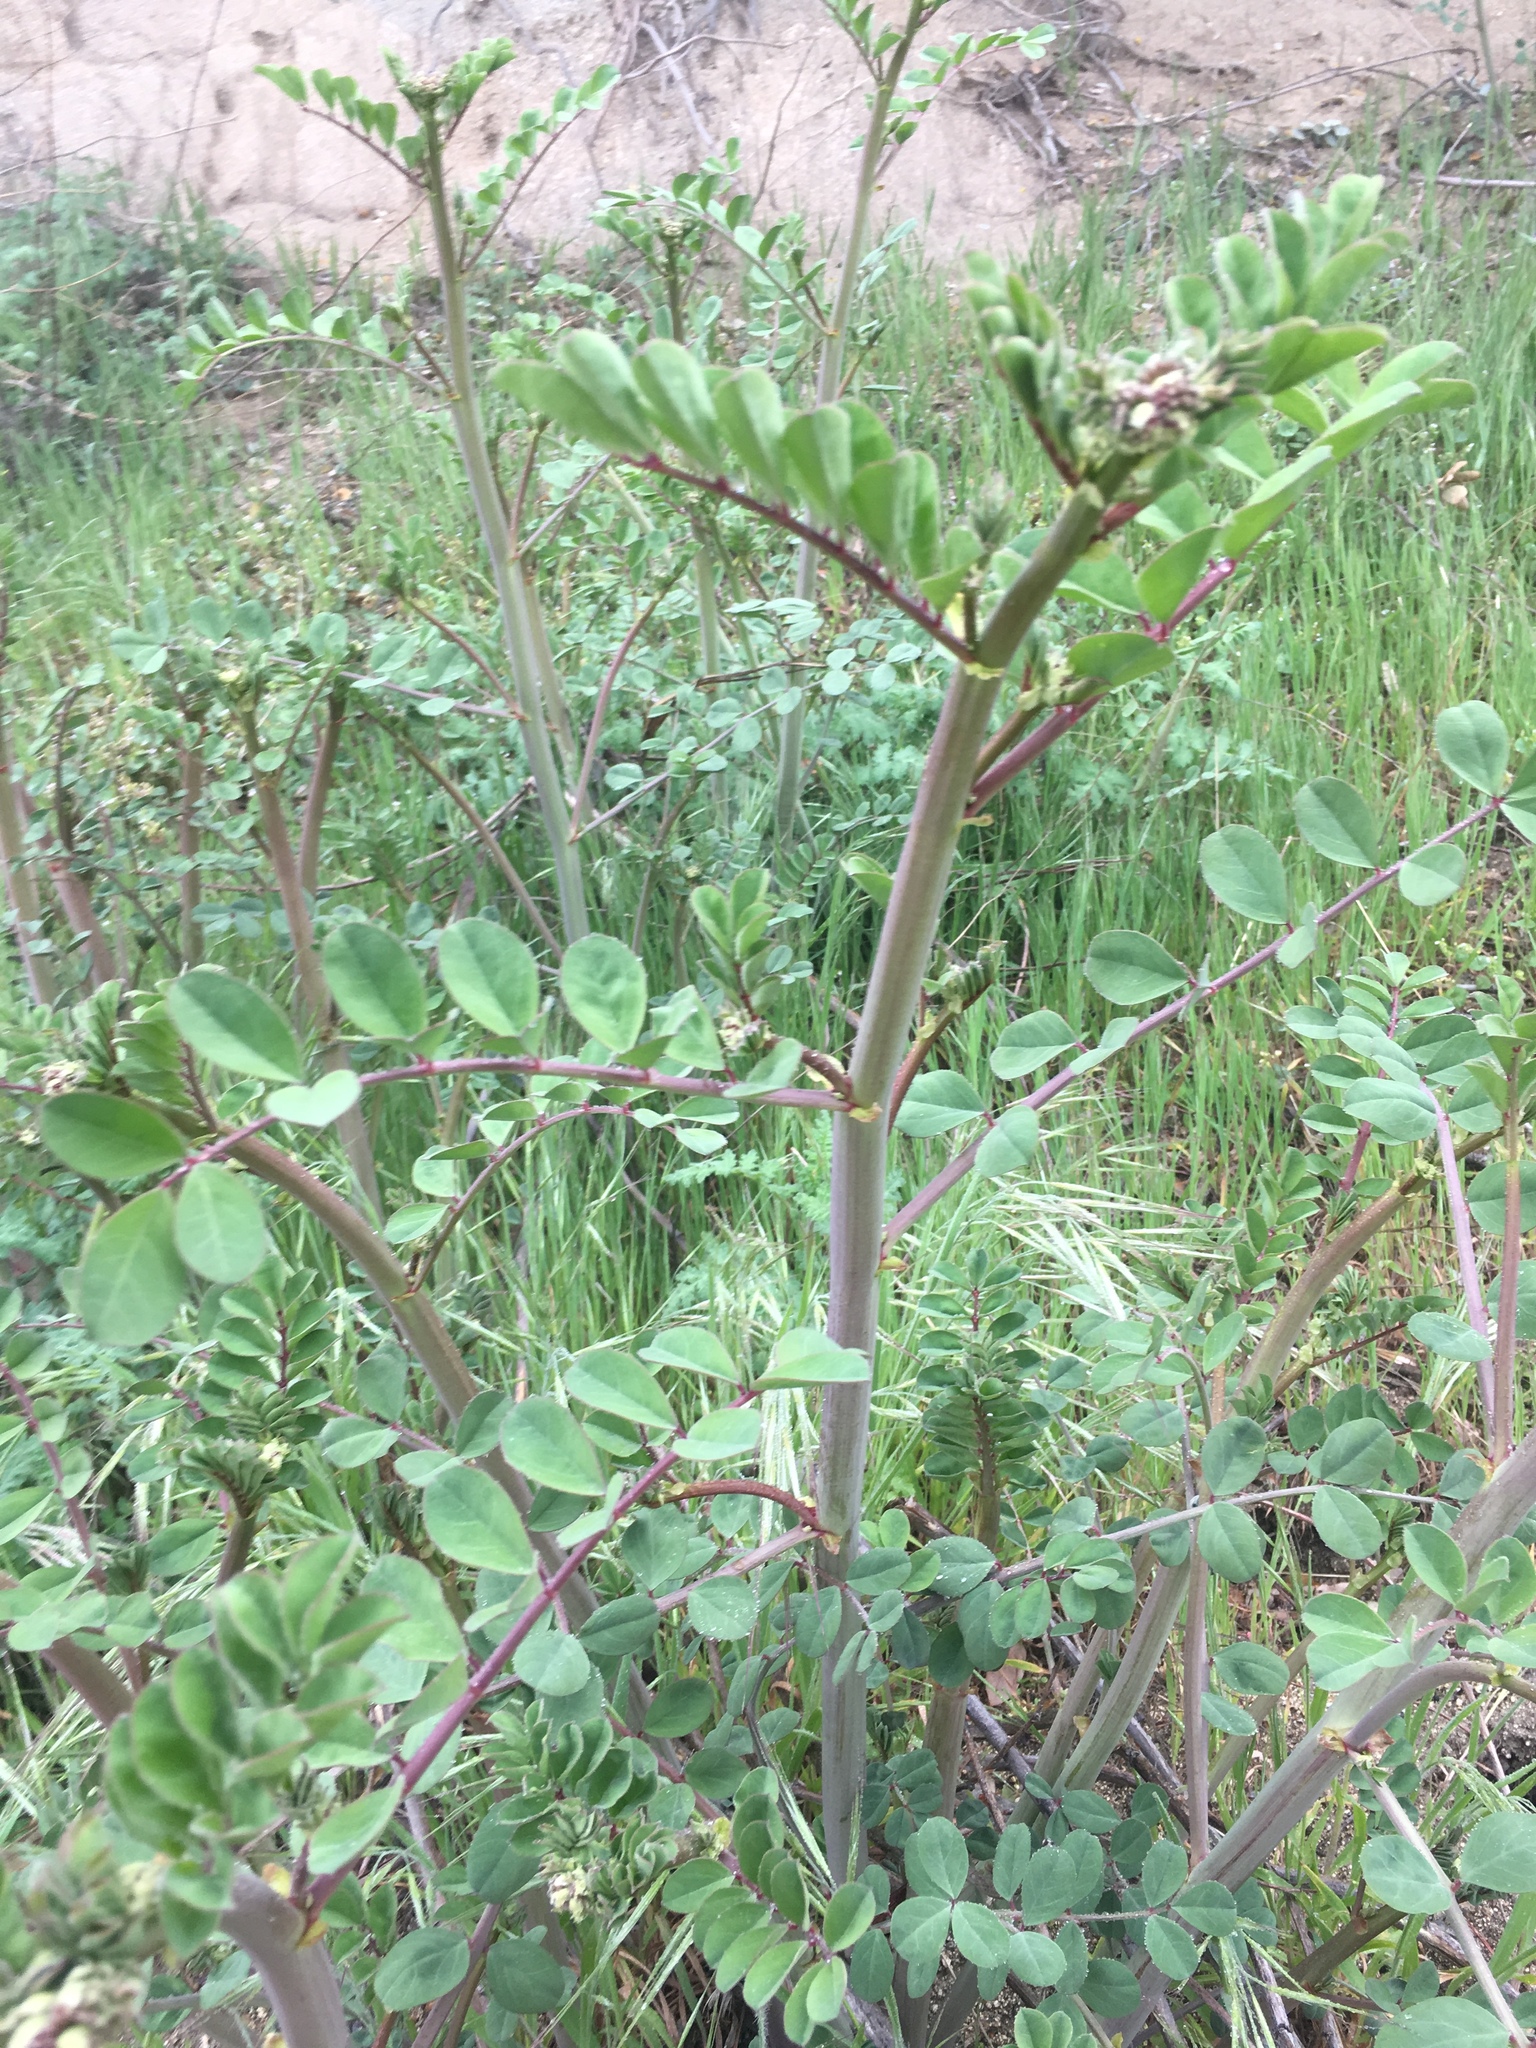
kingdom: Plantae
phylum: Tracheophyta
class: Magnoliopsida
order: Fabales
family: Fabaceae
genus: Hosackia
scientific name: Hosackia crassifolia
